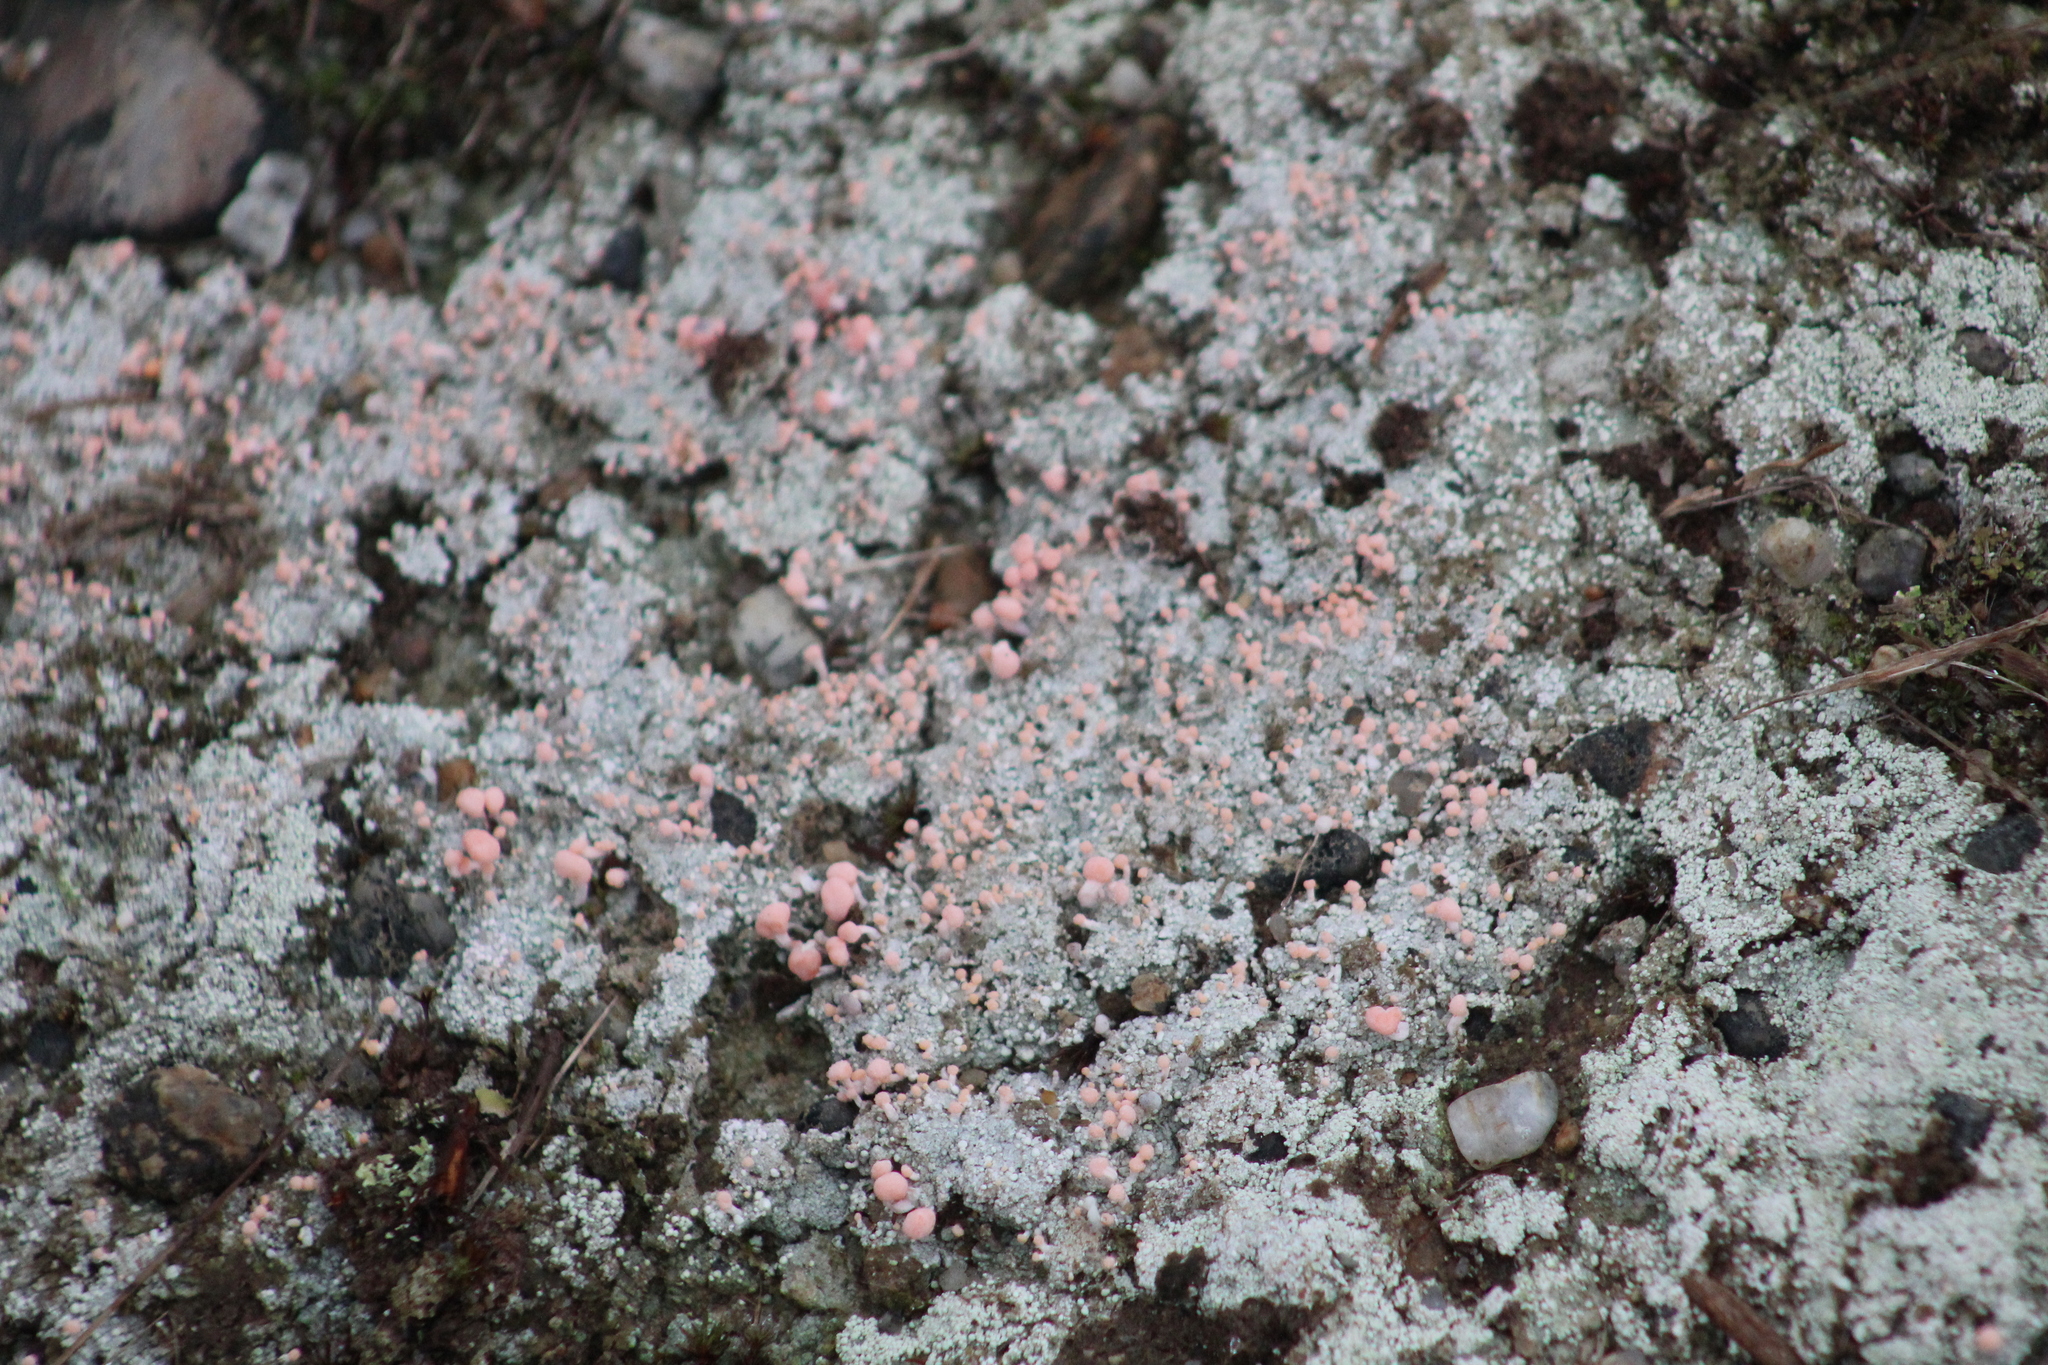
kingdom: Fungi
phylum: Ascomycota
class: Lecanoromycetes
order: Pertusariales
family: Icmadophilaceae
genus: Dibaeis
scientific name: Dibaeis baeomyces
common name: Pink earth lichen
